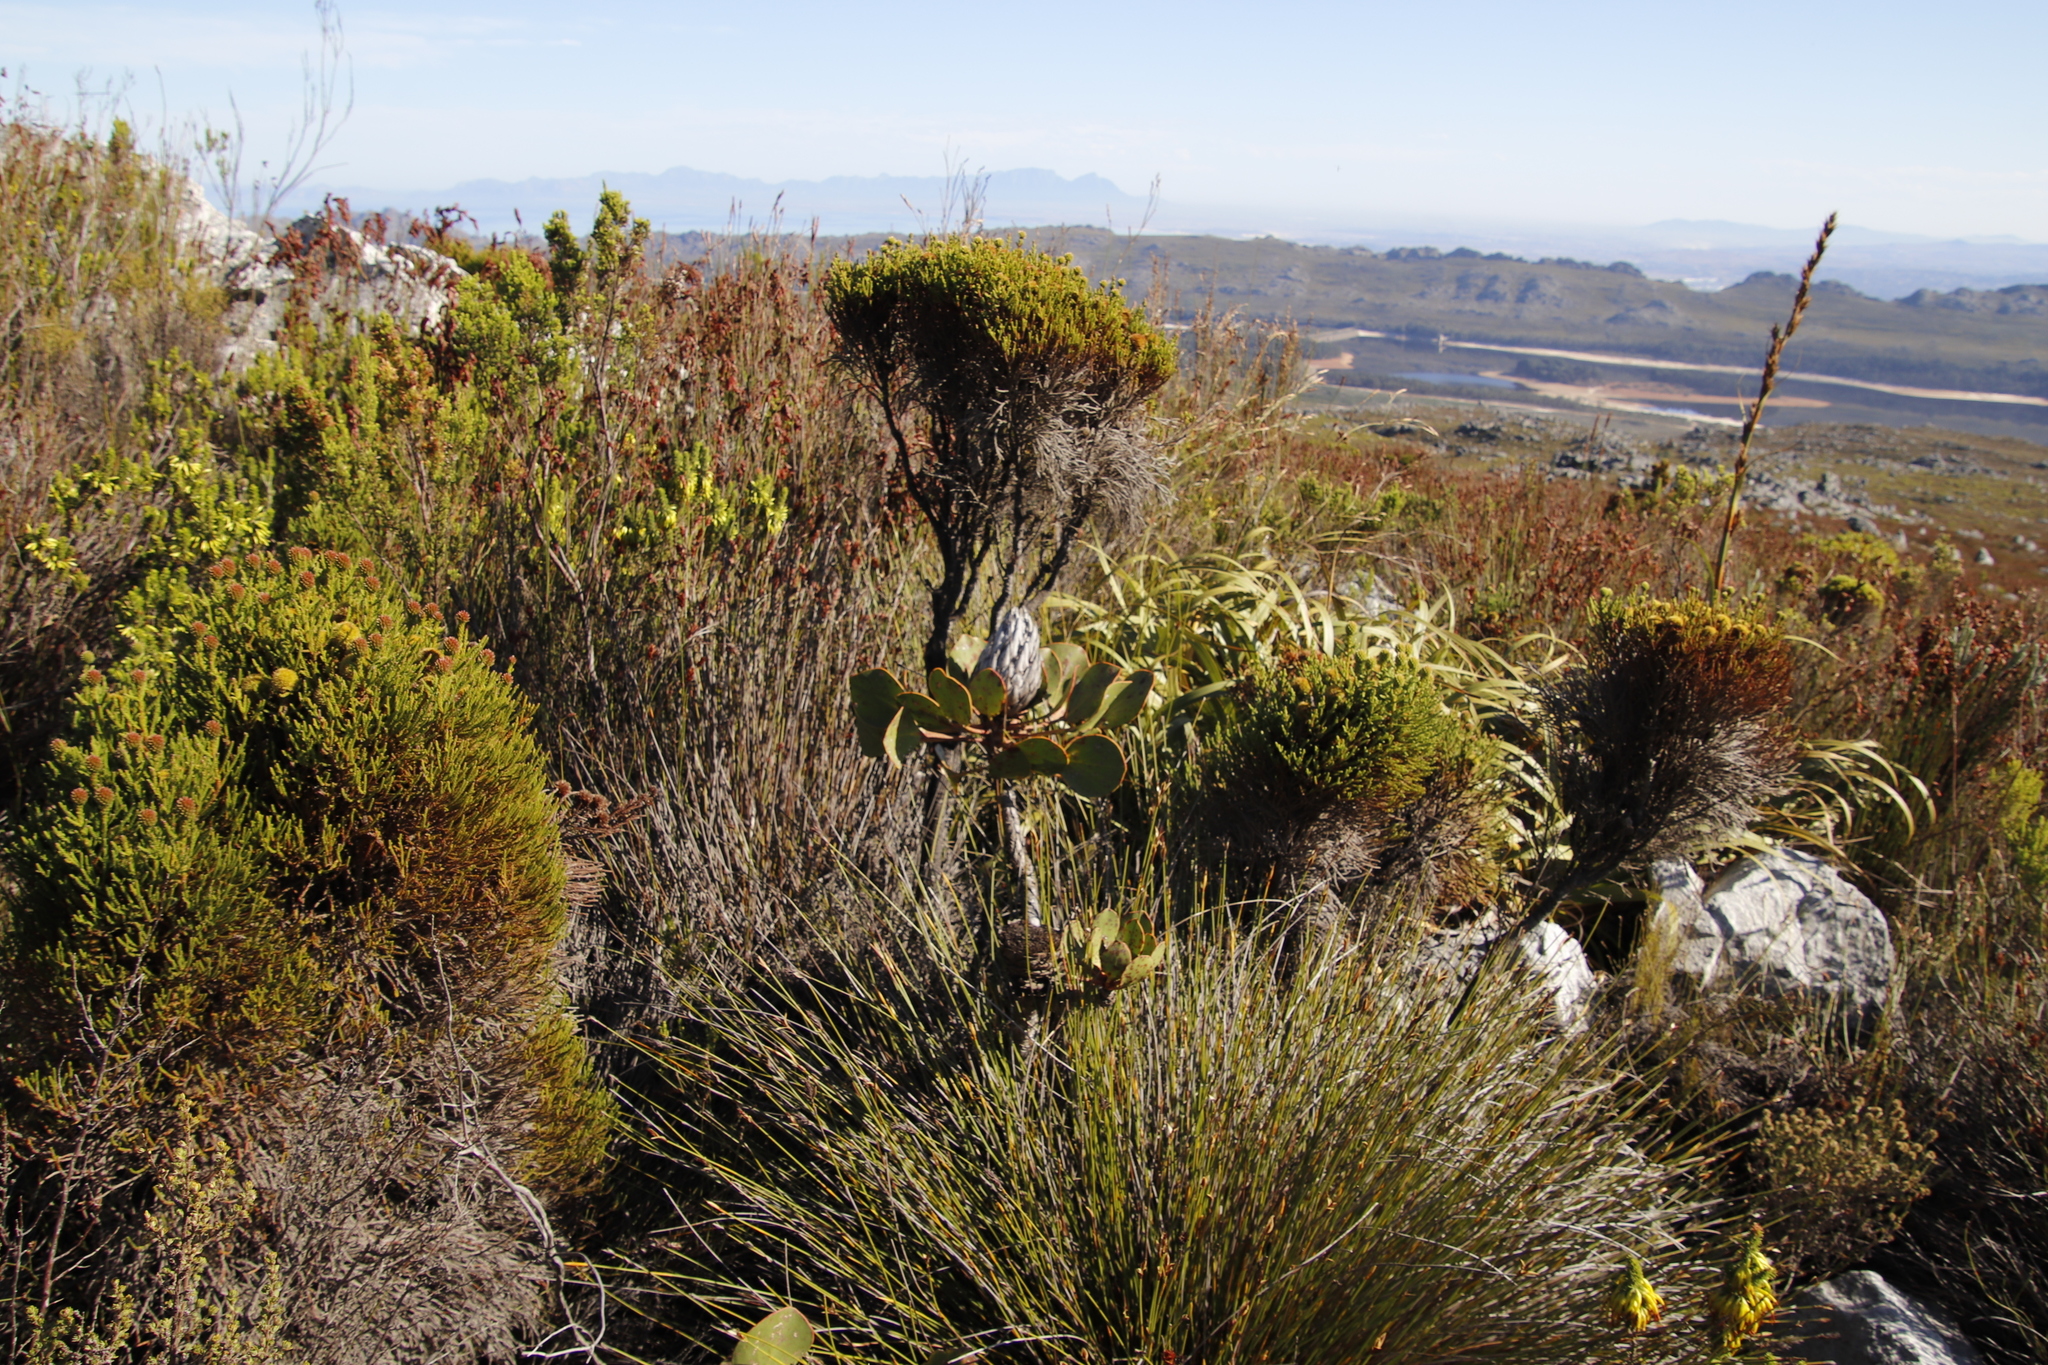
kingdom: Plantae
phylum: Tracheophyta
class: Magnoliopsida
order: Proteales
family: Proteaceae
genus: Protea
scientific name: Protea cynaroides
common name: King protea
